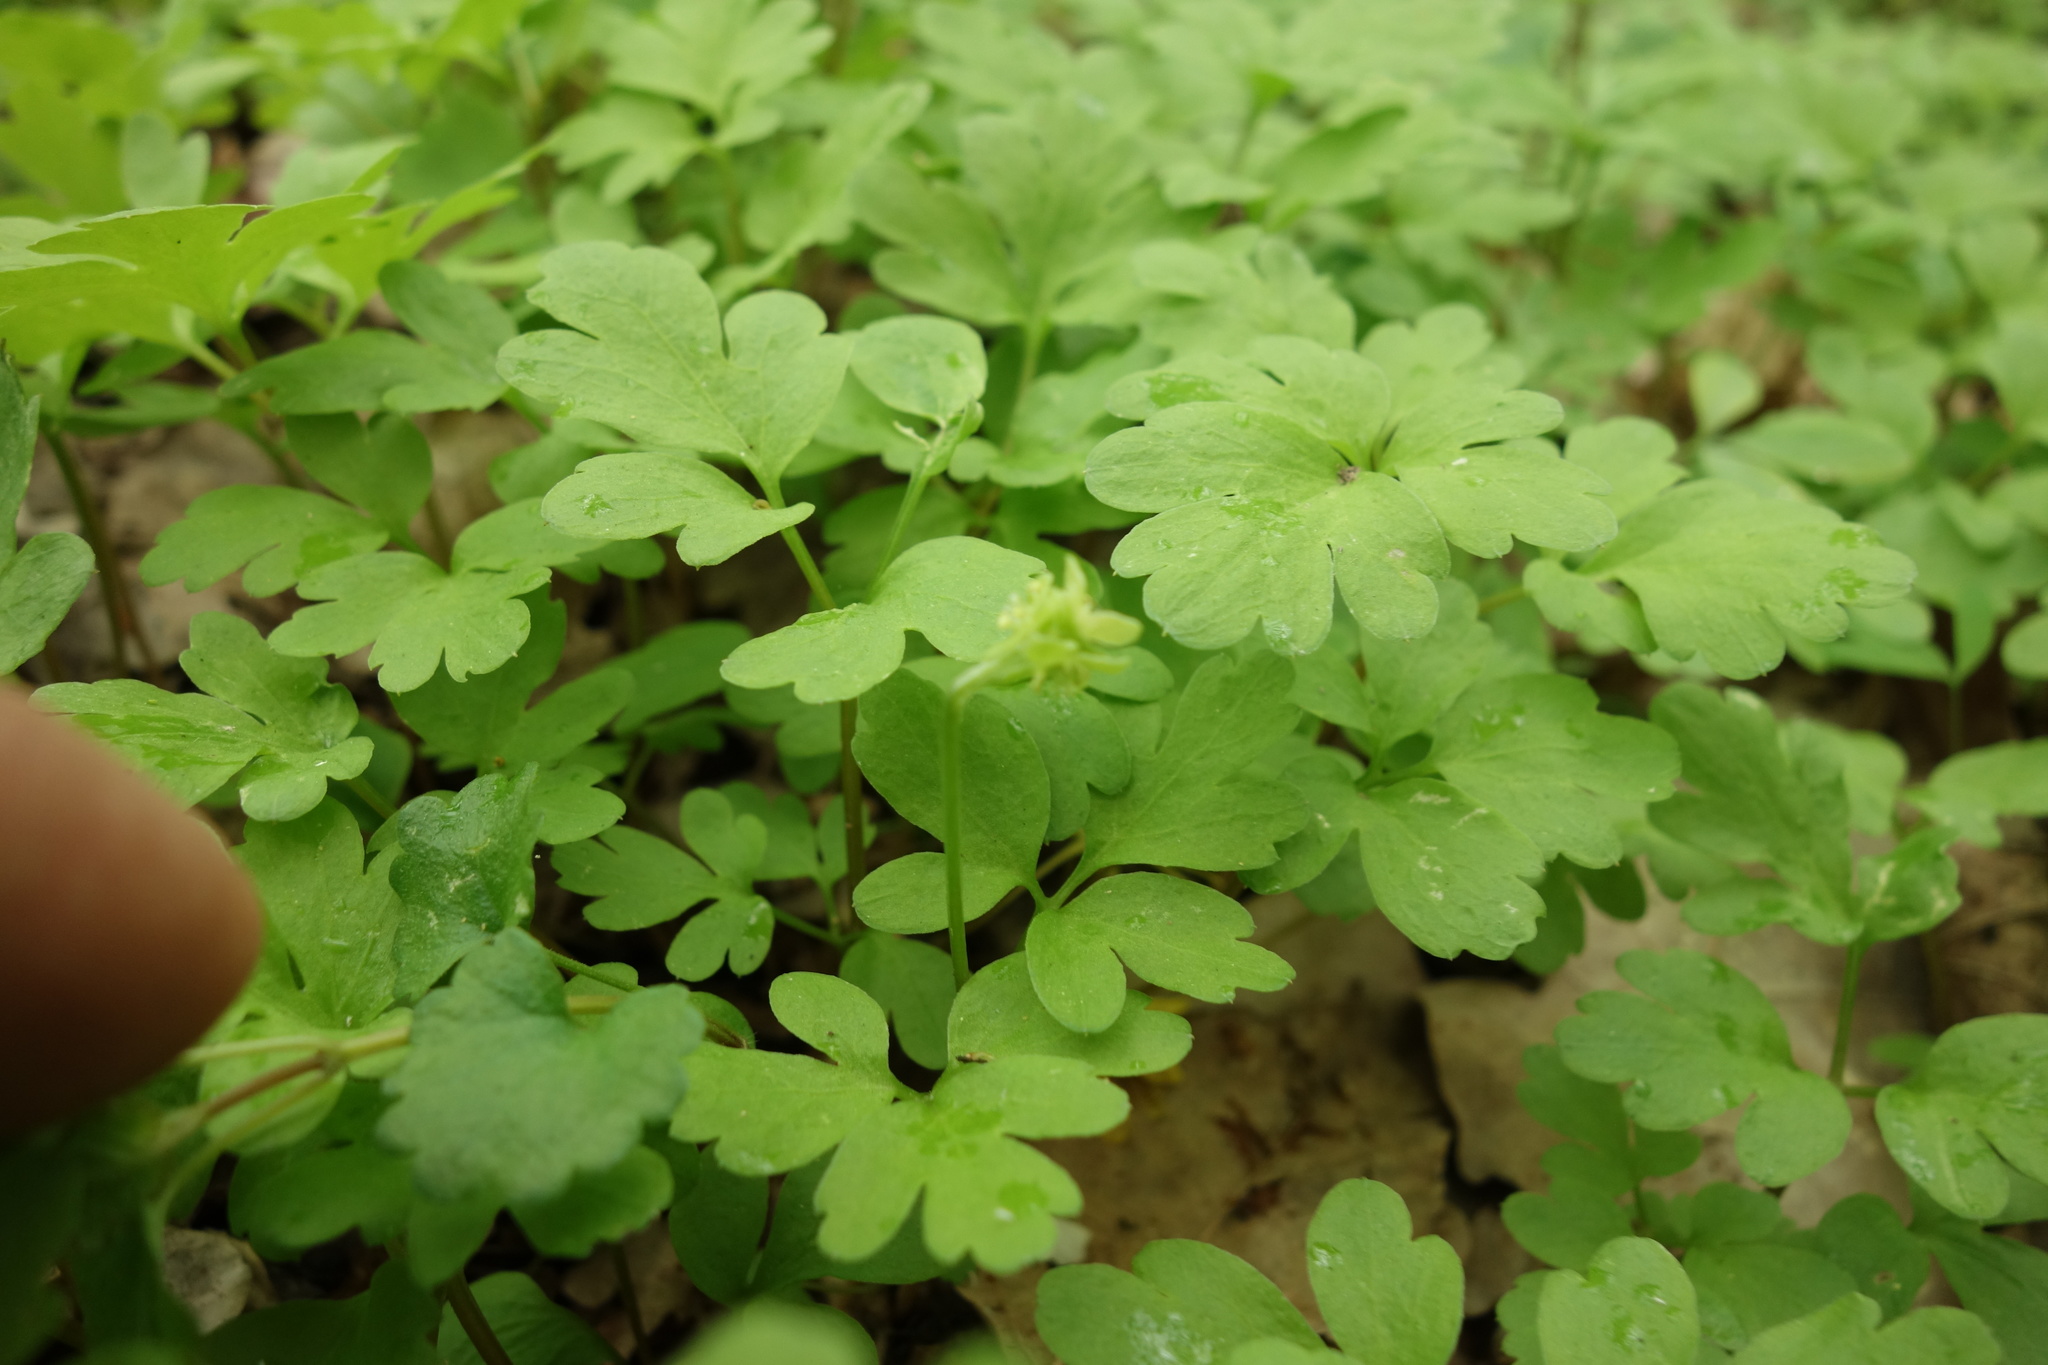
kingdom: Plantae
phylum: Tracheophyta
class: Magnoliopsida
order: Dipsacales
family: Viburnaceae
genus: Adoxa
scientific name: Adoxa moschatellina
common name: Moschatel
